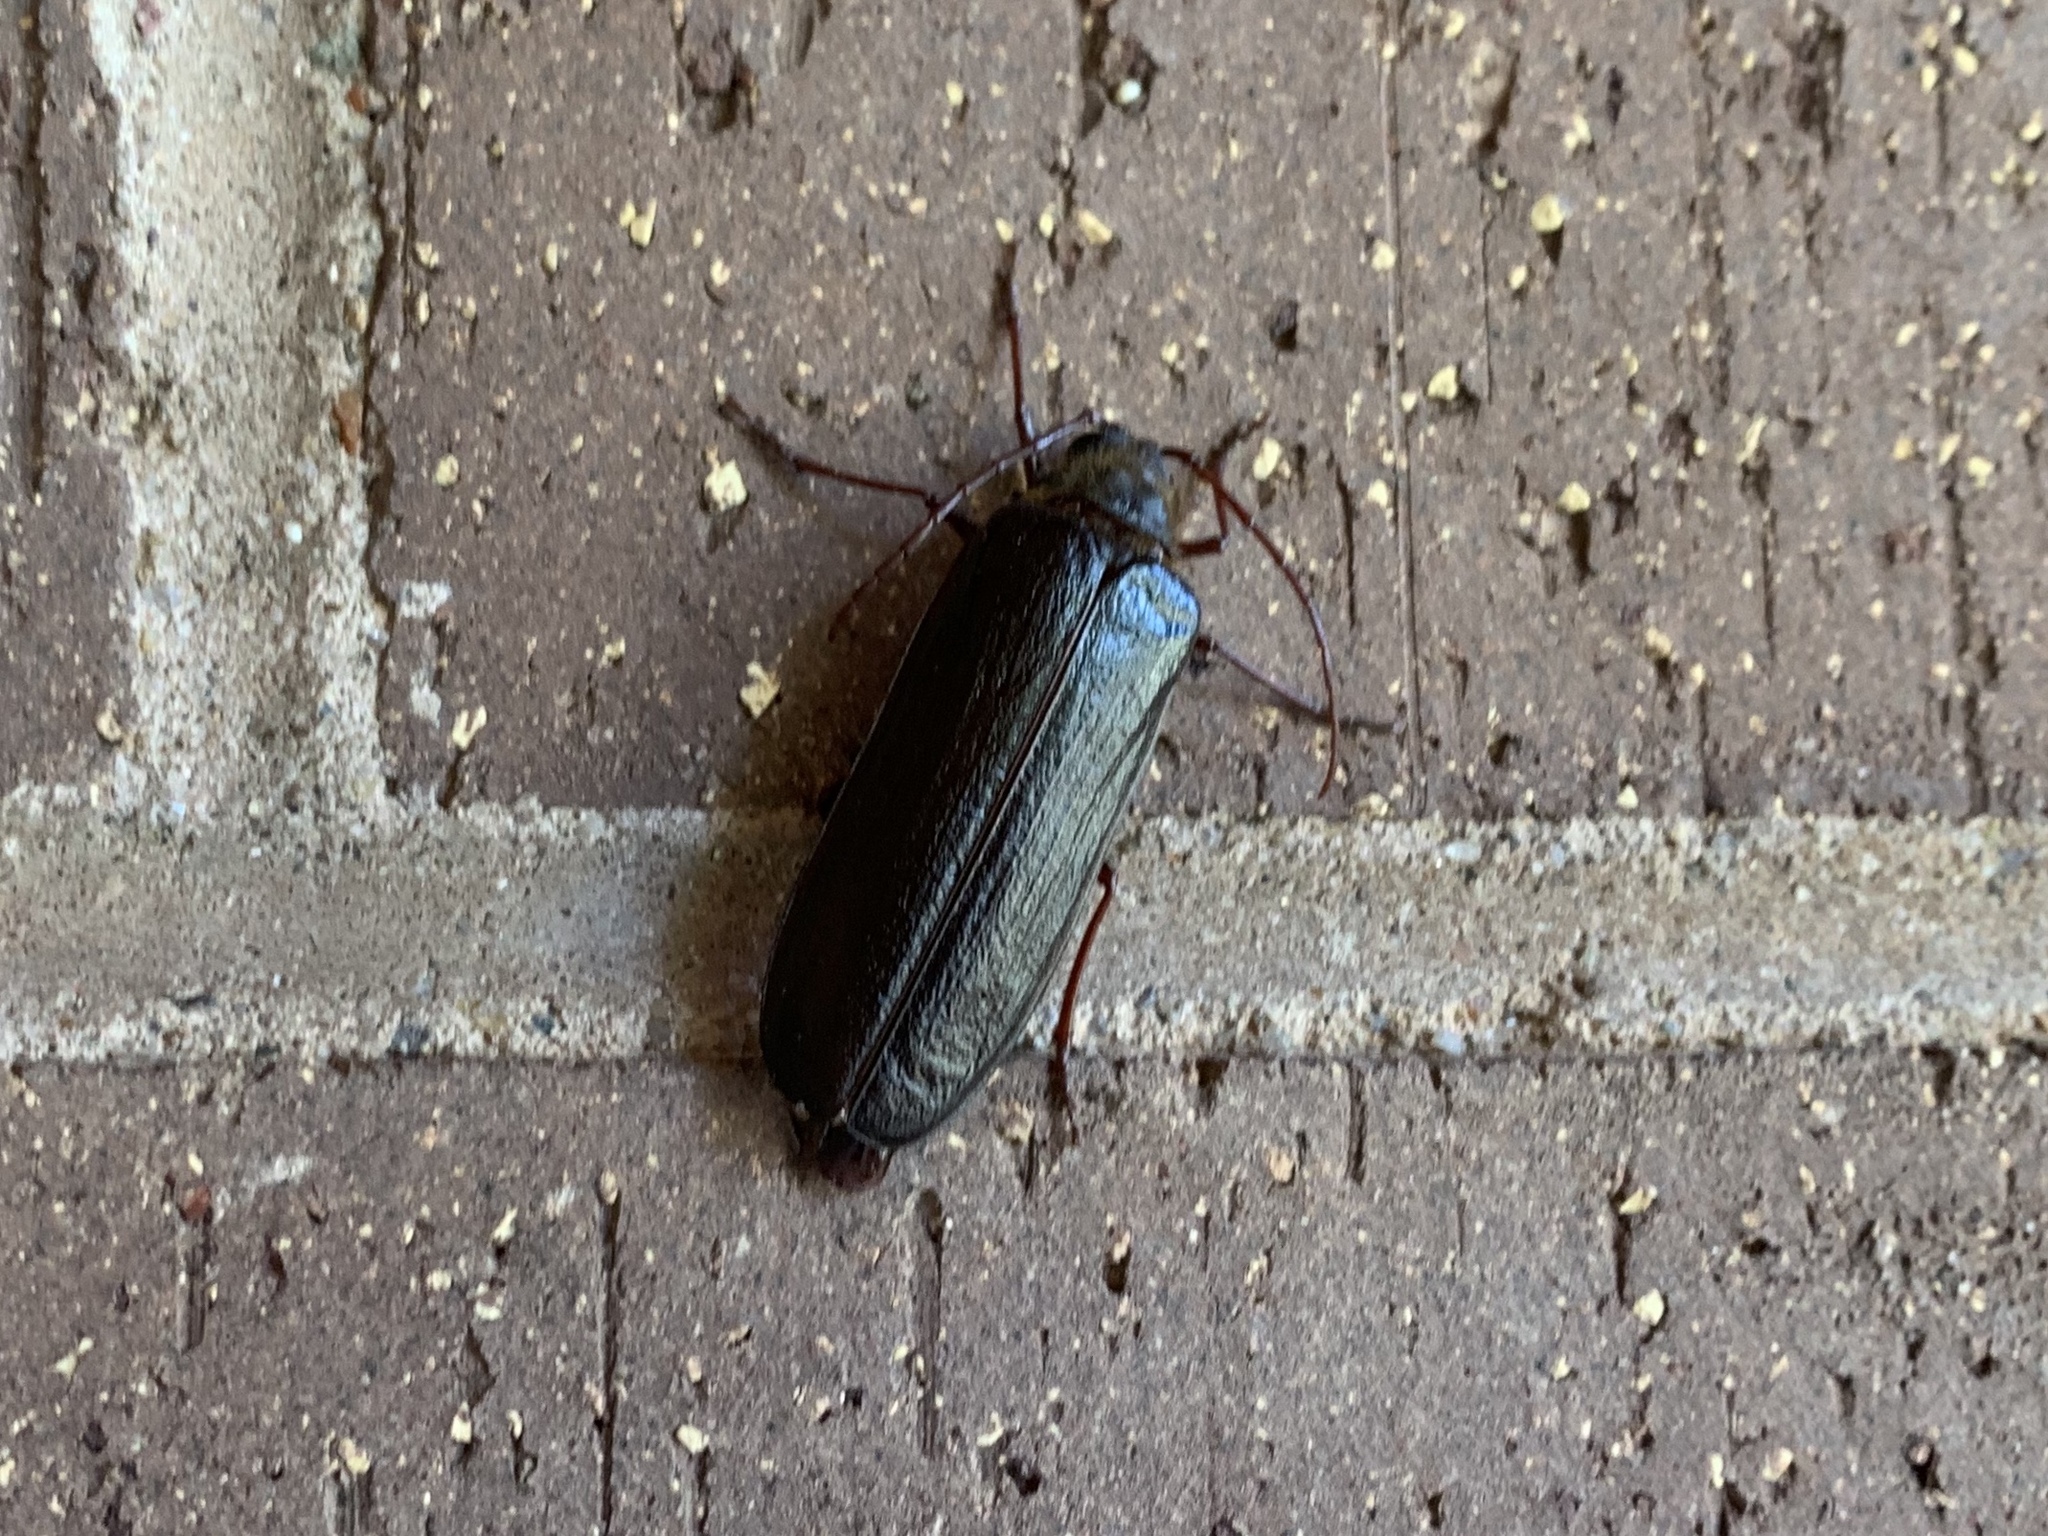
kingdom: Animalia
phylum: Arthropoda
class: Insecta
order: Coleoptera
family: Cerambycidae
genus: Tragosoma
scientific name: Tragosoma harrisii
